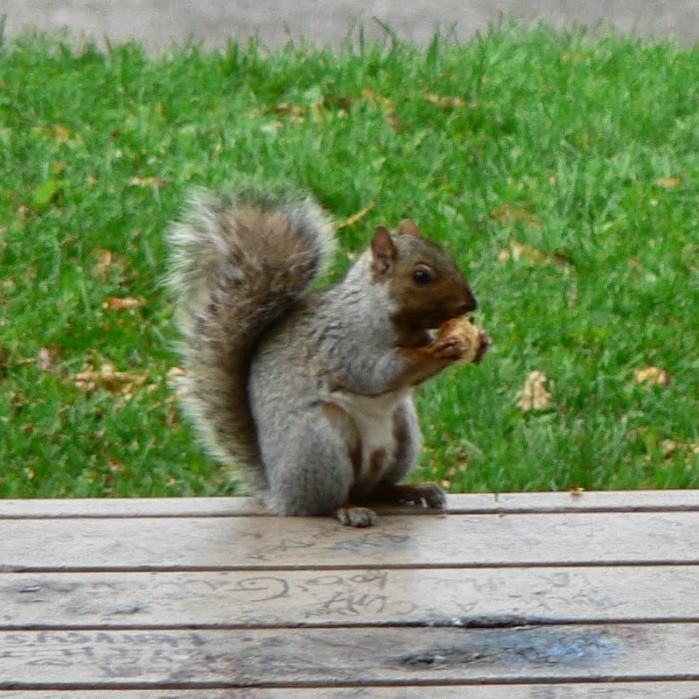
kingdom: Animalia
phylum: Chordata
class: Mammalia
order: Rodentia
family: Sciuridae
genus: Sciurus
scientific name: Sciurus carolinensis
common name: Eastern gray squirrel
